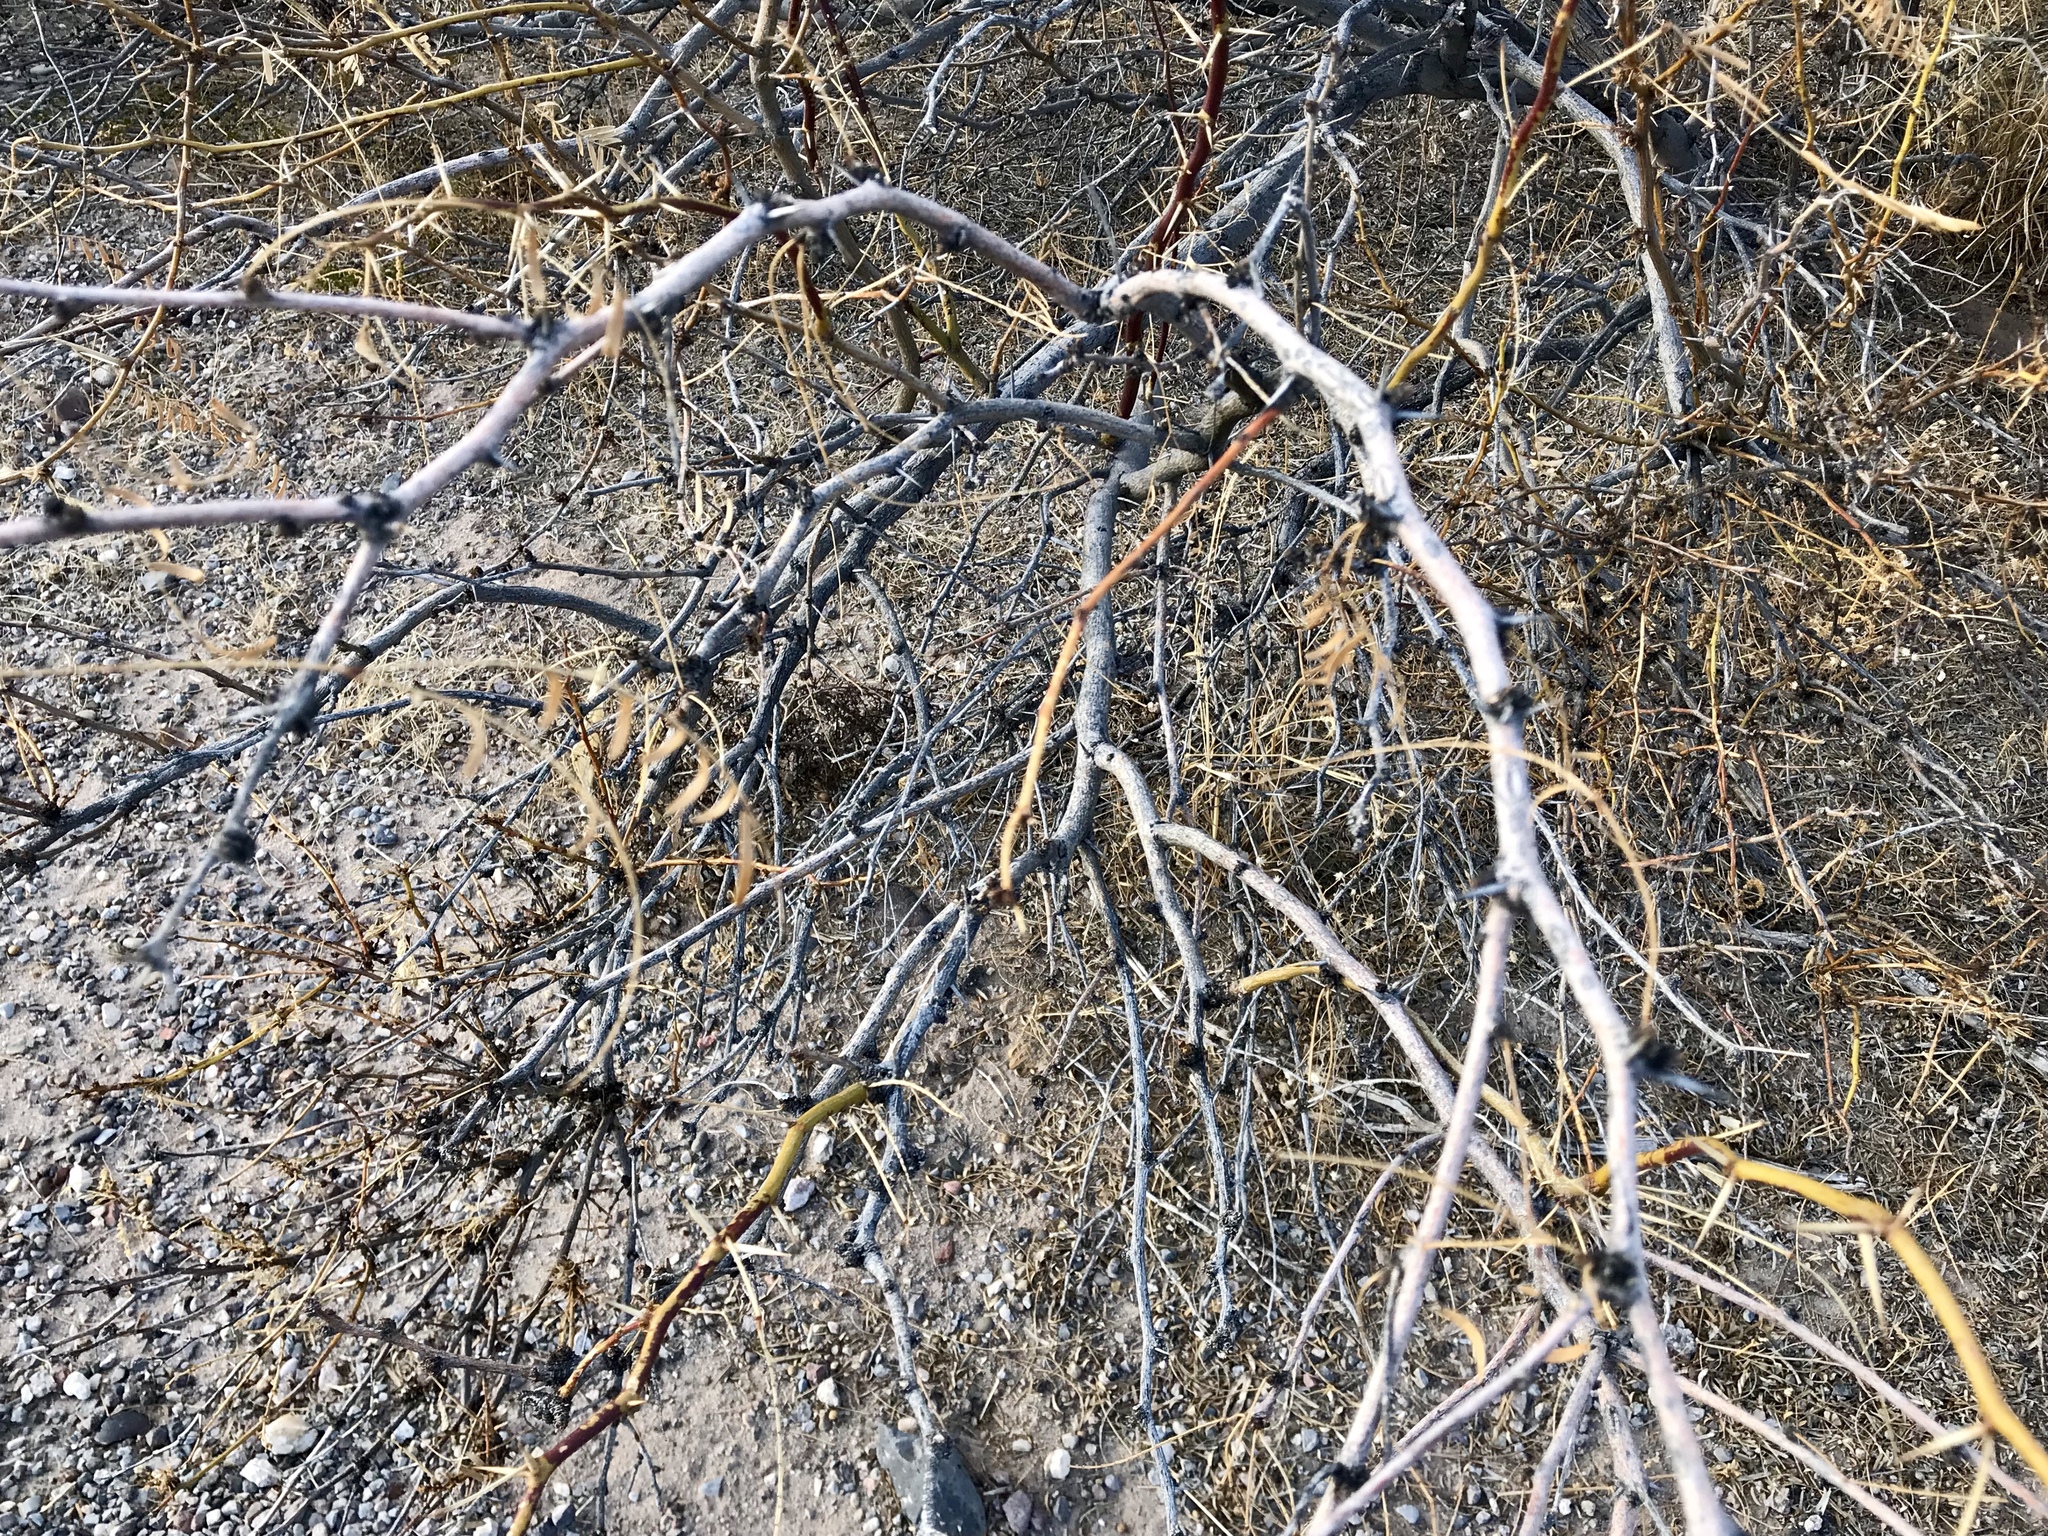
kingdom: Plantae
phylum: Tracheophyta
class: Magnoliopsida
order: Fabales
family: Fabaceae
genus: Prosopis
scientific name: Prosopis glandulosa
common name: Honey mesquite
